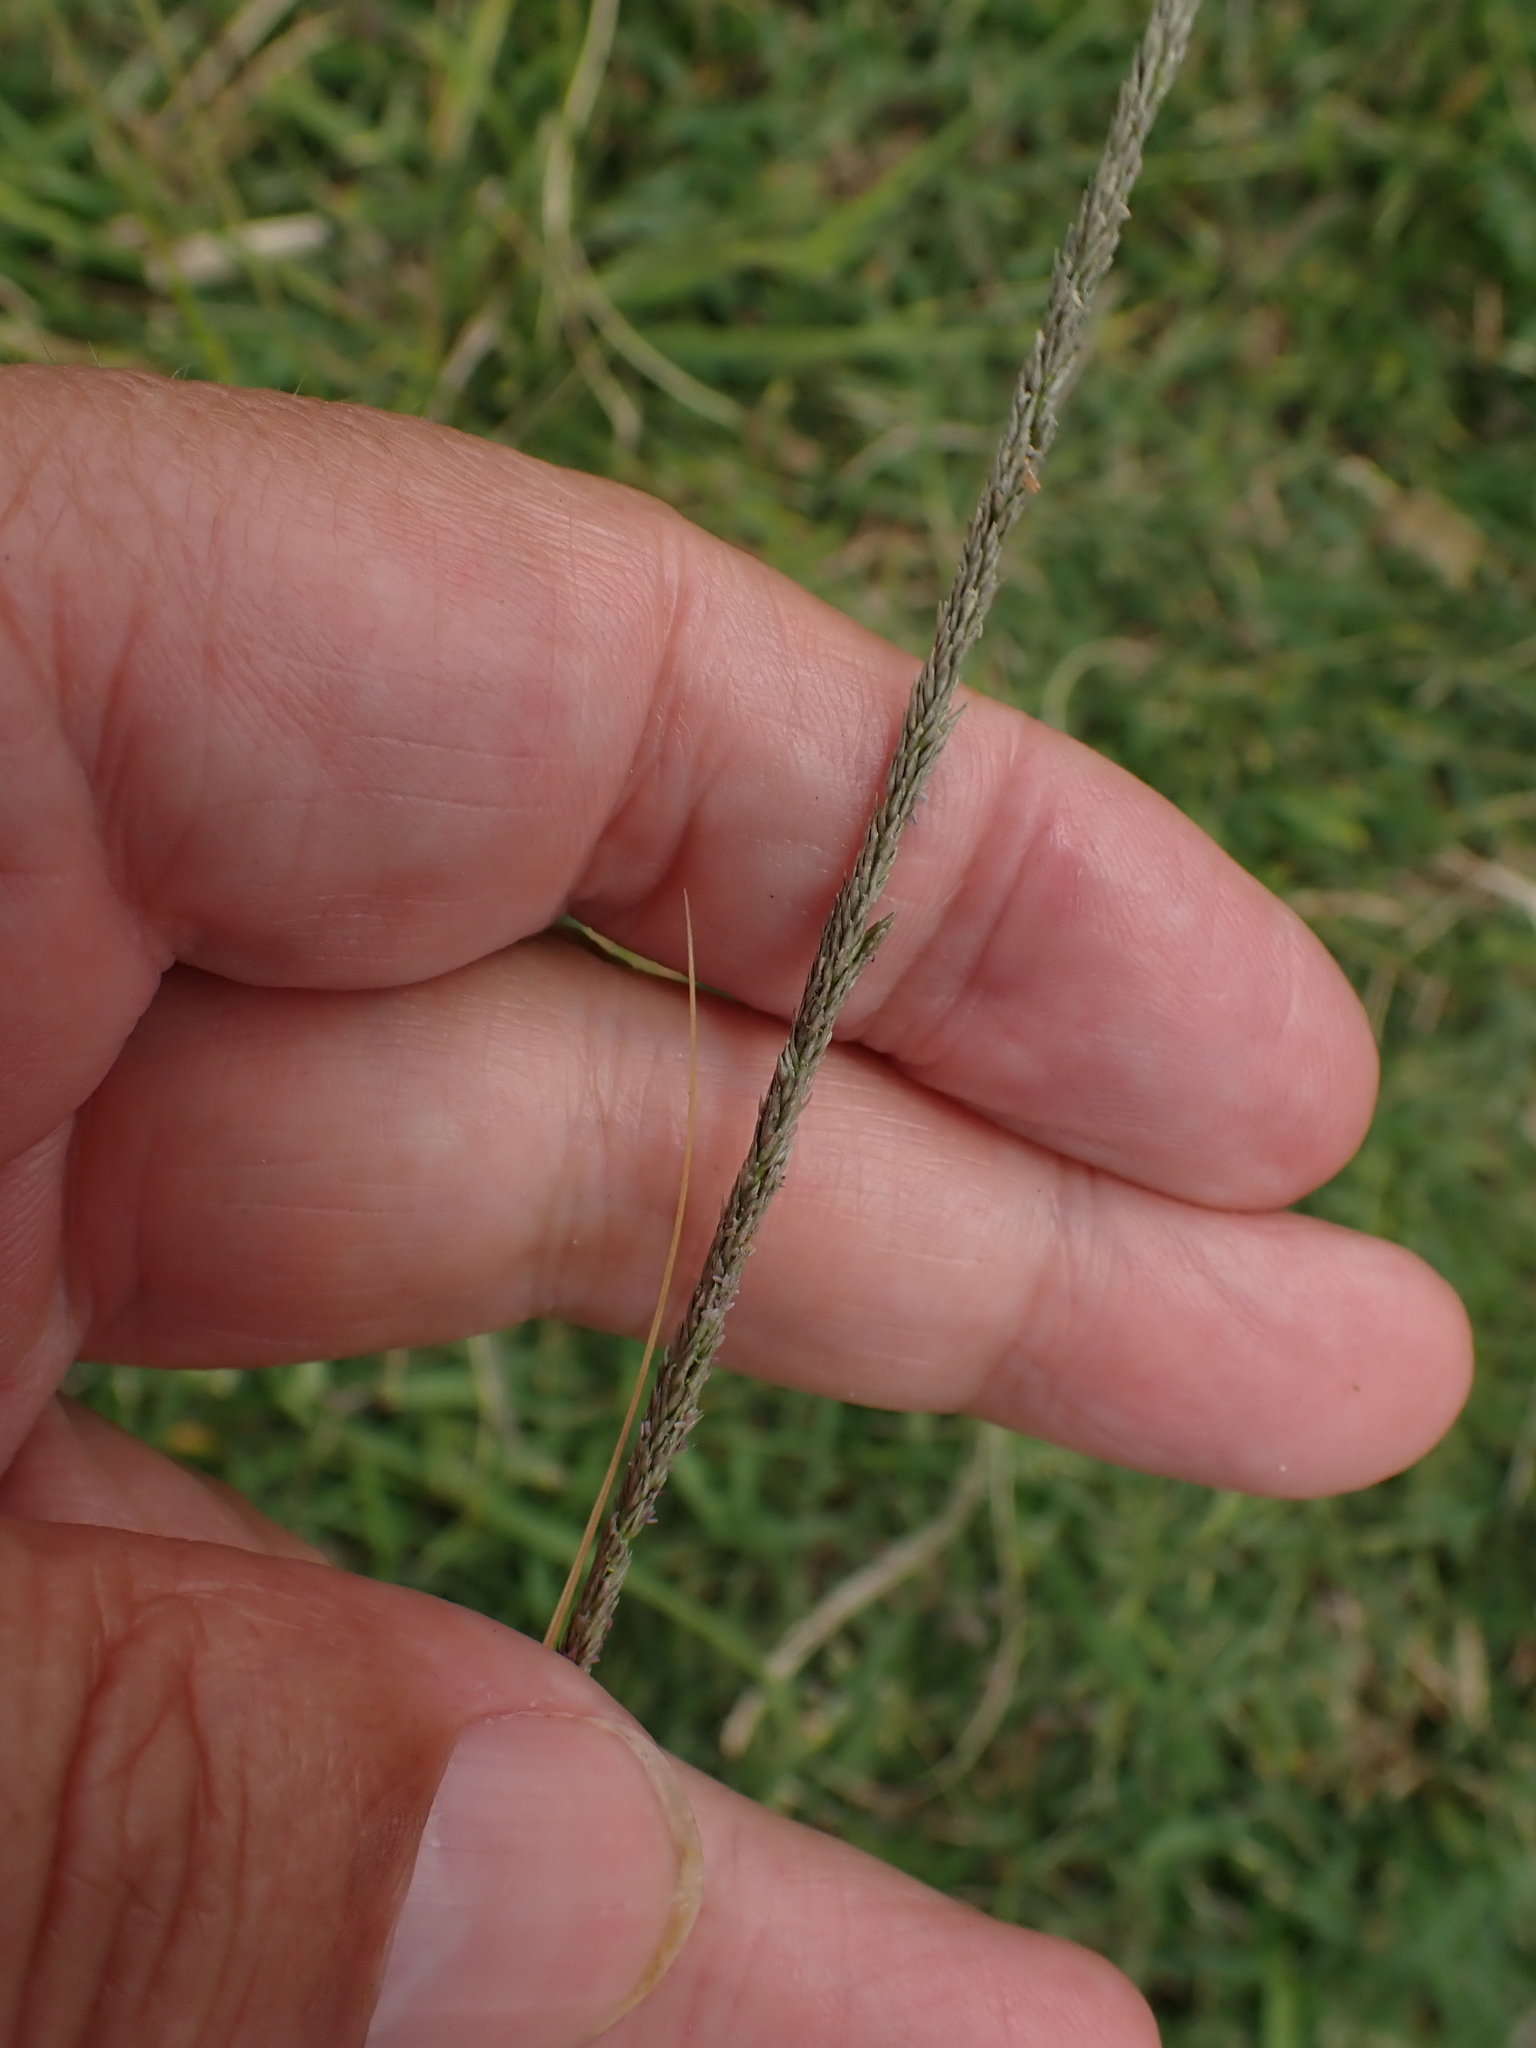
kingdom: Plantae
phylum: Tracheophyta
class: Liliopsida
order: Poales
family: Poaceae
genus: Sporobolus
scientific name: Sporobolus indicus
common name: Smut grass
